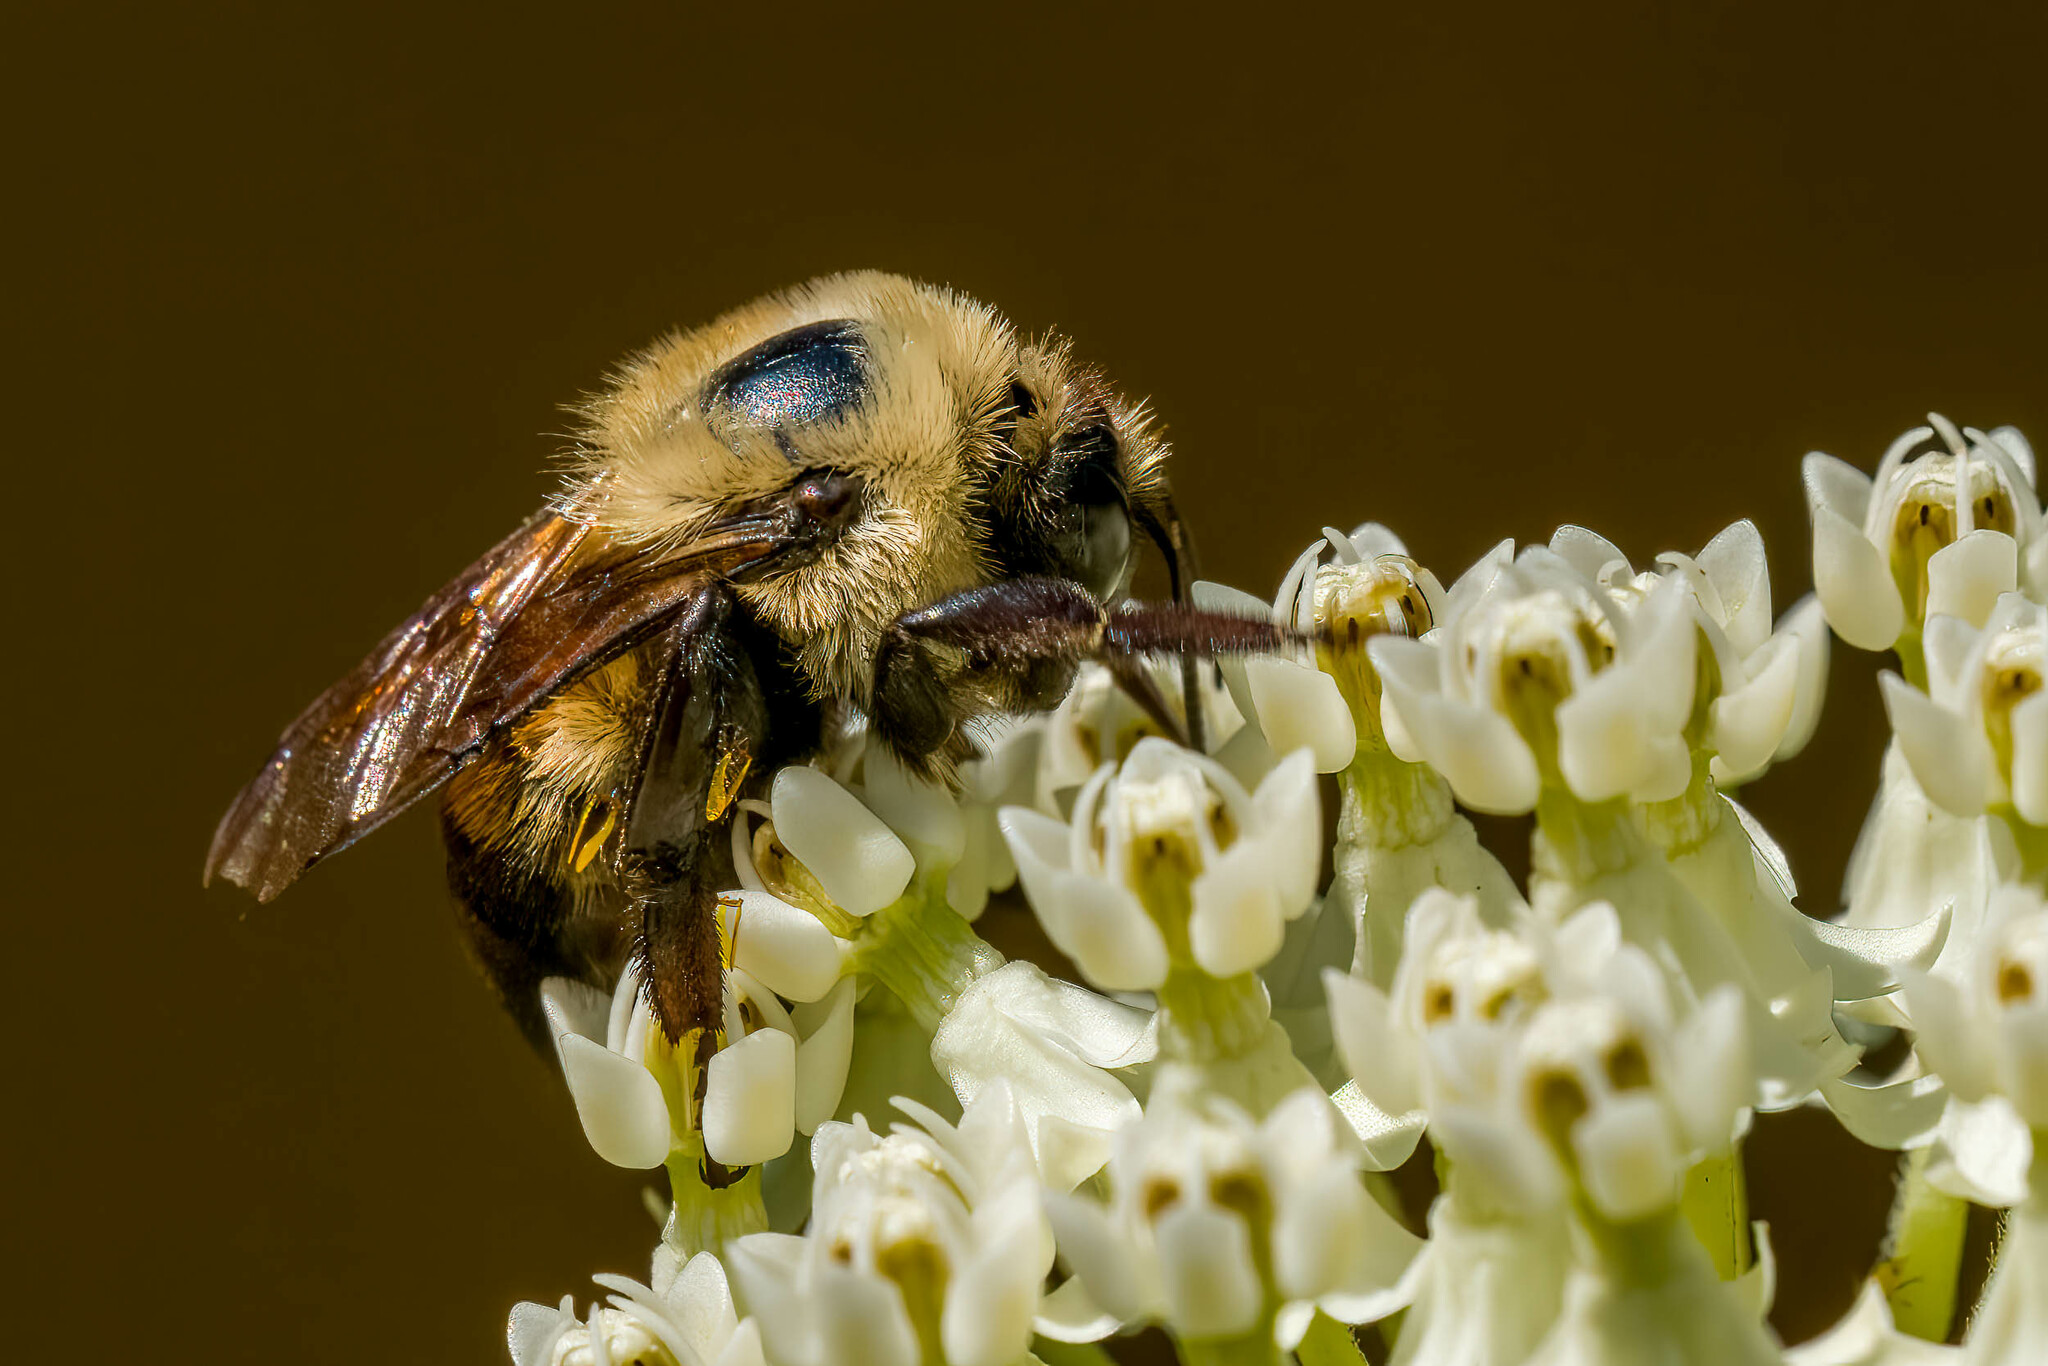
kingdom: Animalia
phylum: Arthropoda
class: Insecta
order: Hymenoptera
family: Apidae
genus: Bombus
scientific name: Bombus griseocollis
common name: Brown-belted bumble bee
